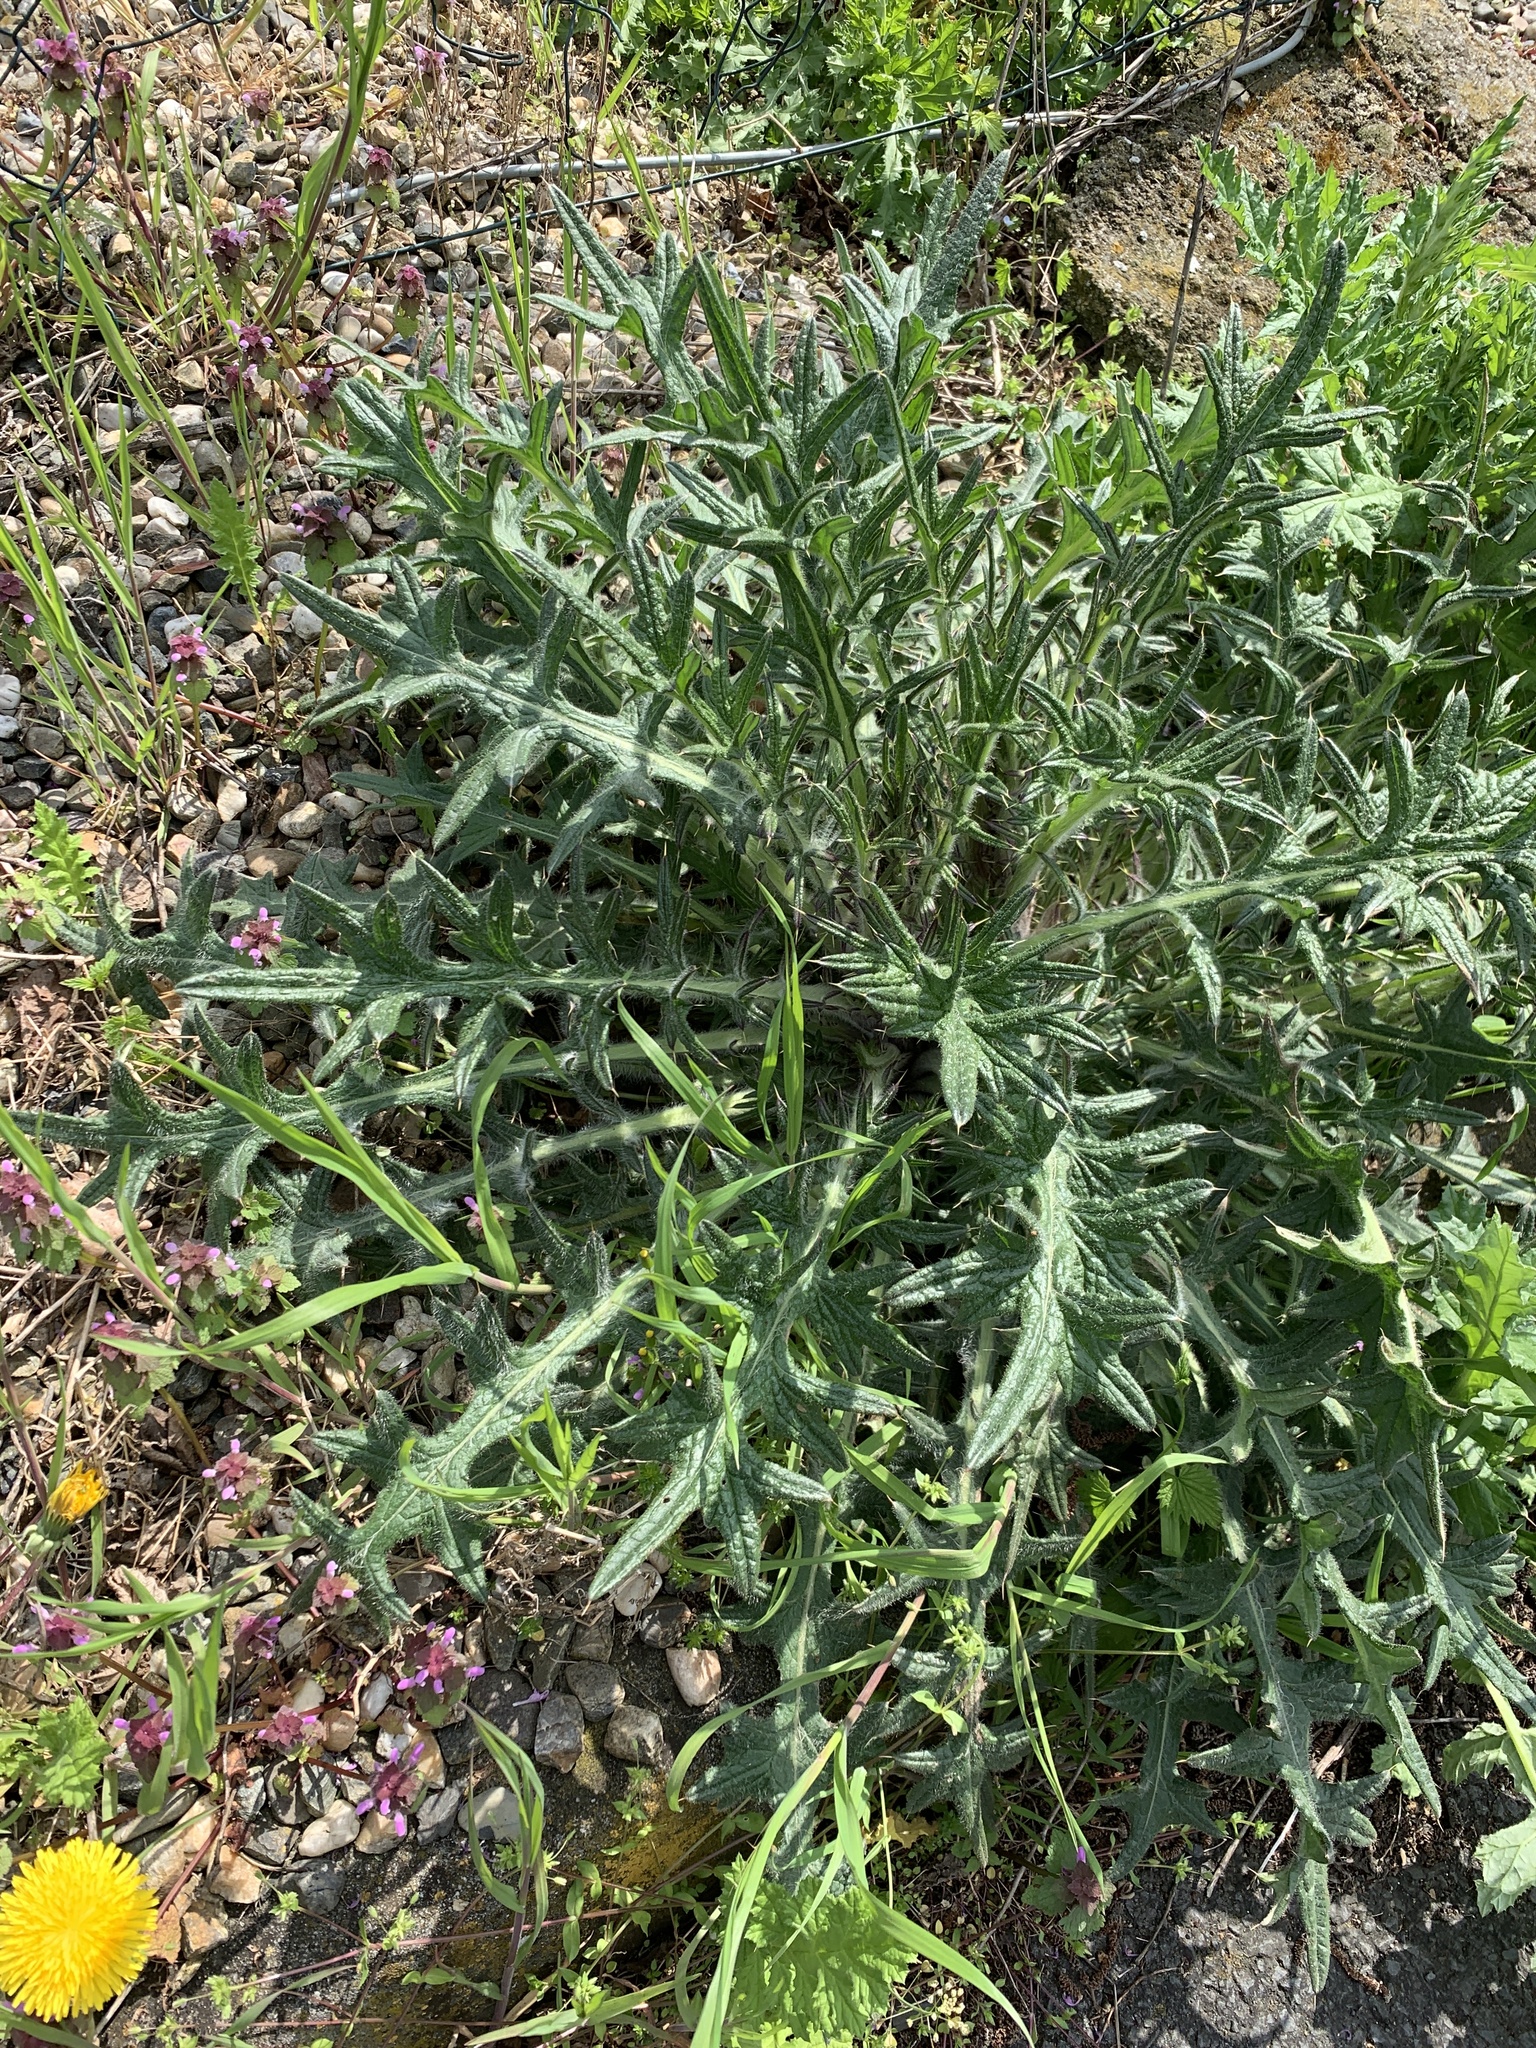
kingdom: Plantae
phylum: Tracheophyta
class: Magnoliopsida
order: Asterales
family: Asteraceae
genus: Cirsium
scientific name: Cirsium vulgare
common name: Bull thistle
